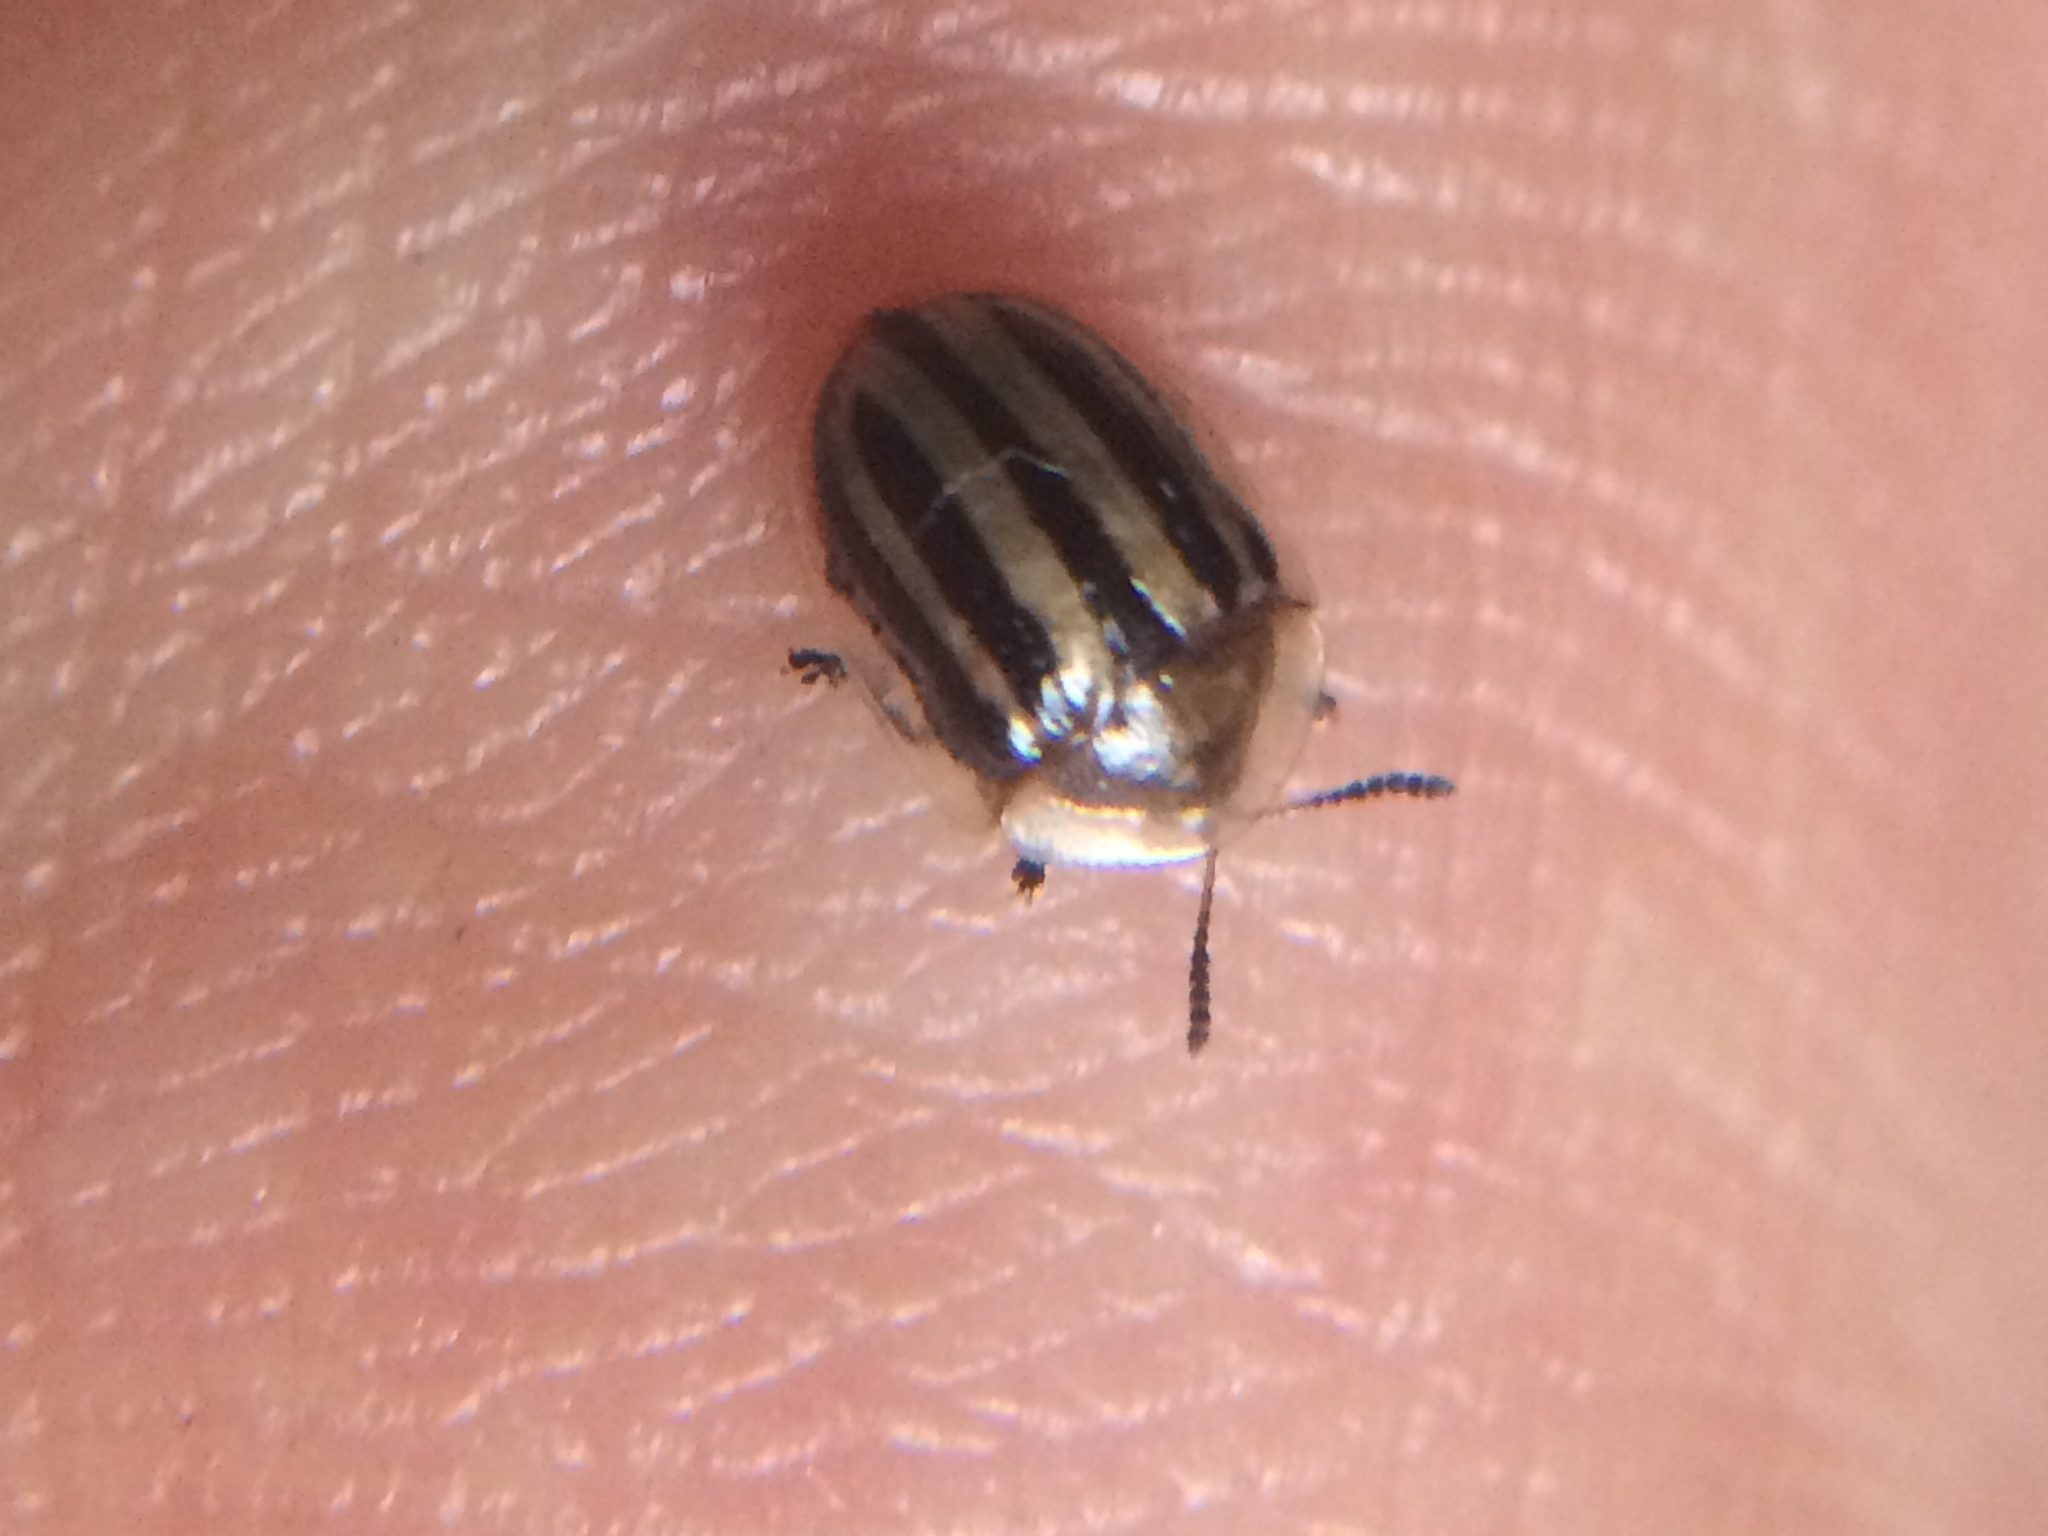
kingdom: Animalia
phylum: Arthropoda
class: Insecta
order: Coleoptera
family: Chrysomelidae
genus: Agroiconota
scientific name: Agroiconota bivittata
